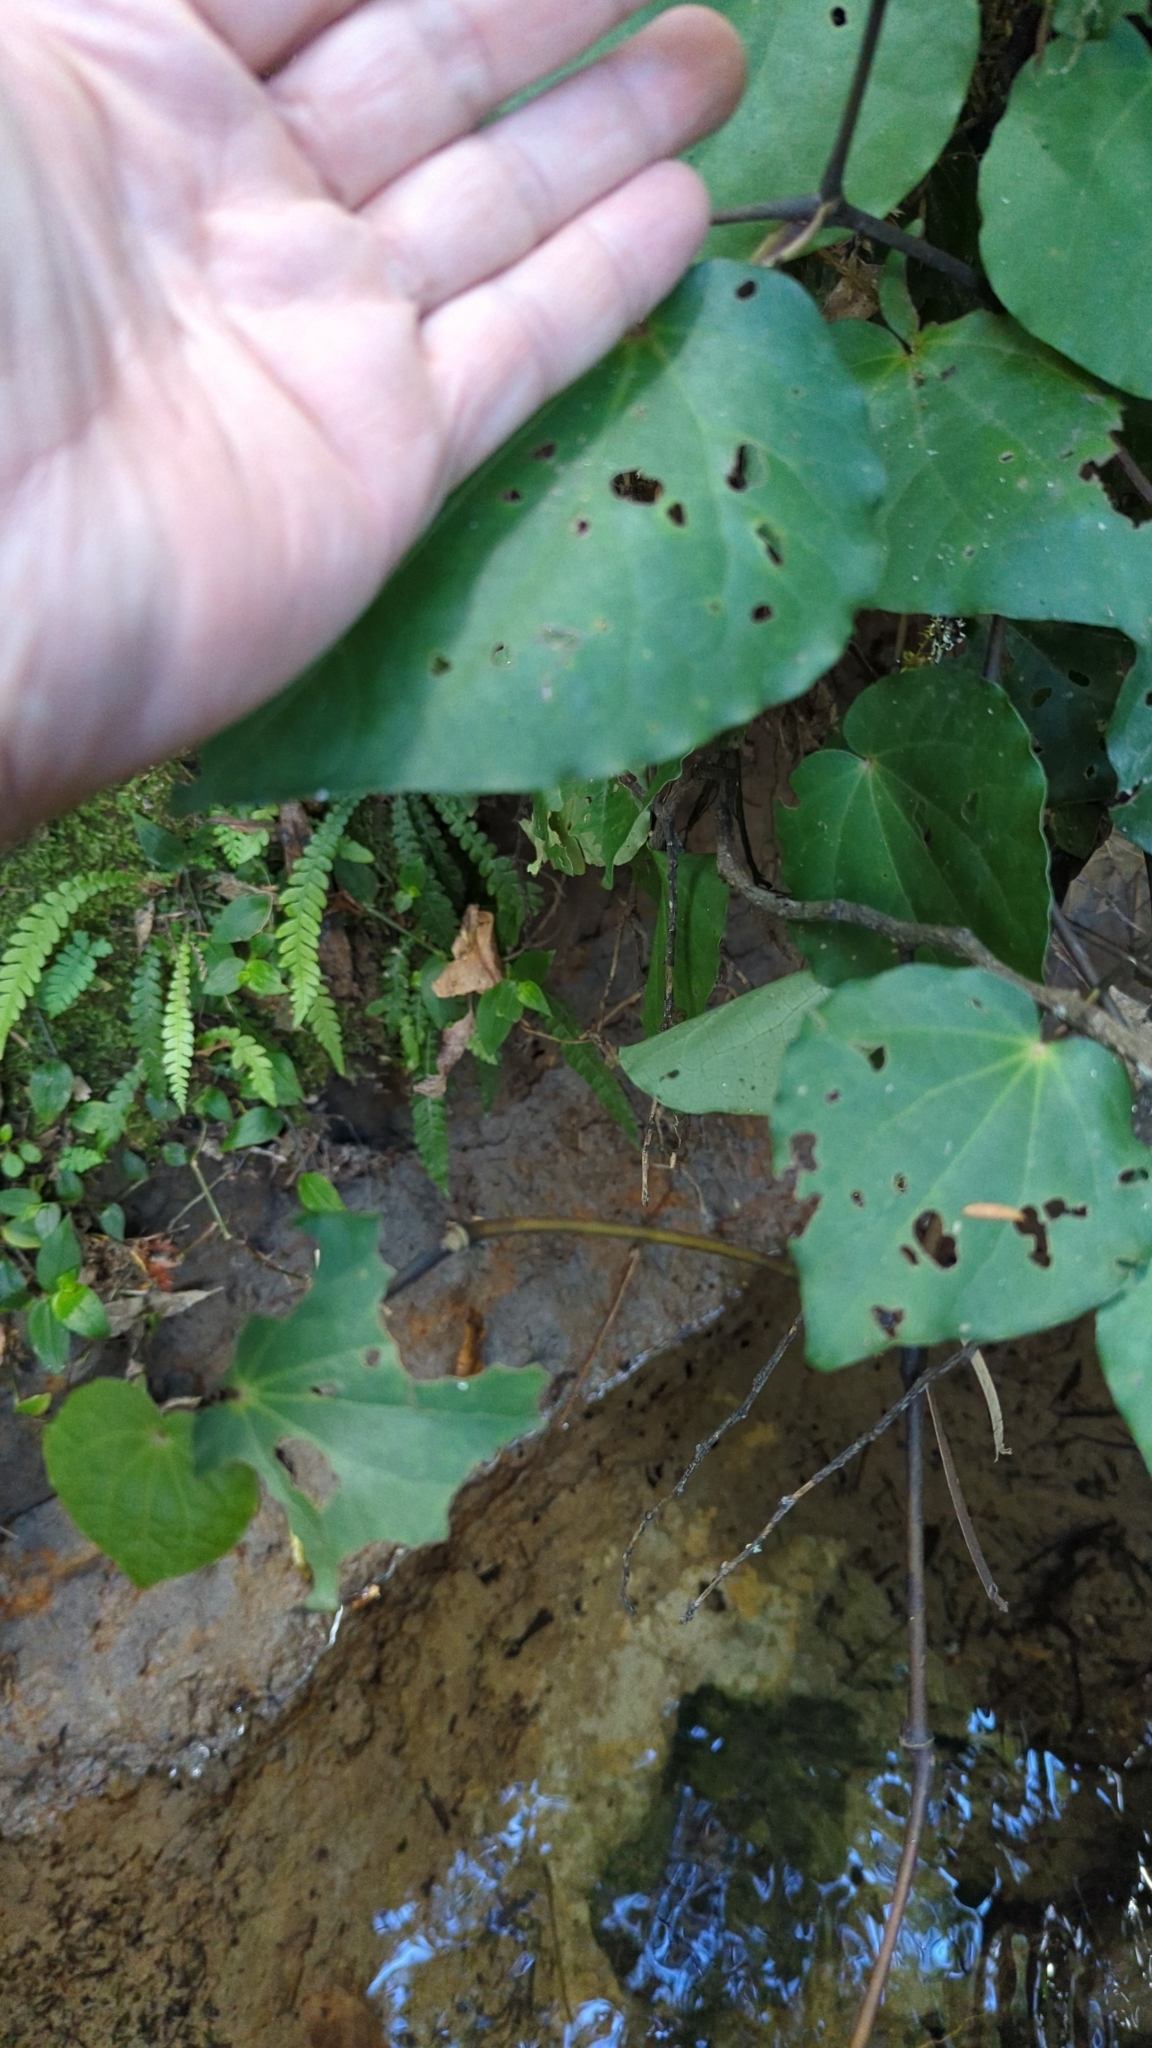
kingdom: Plantae
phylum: Tracheophyta
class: Magnoliopsida
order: Piperales
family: Piperaceae
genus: Macropiper
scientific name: Macropiper excelsum
